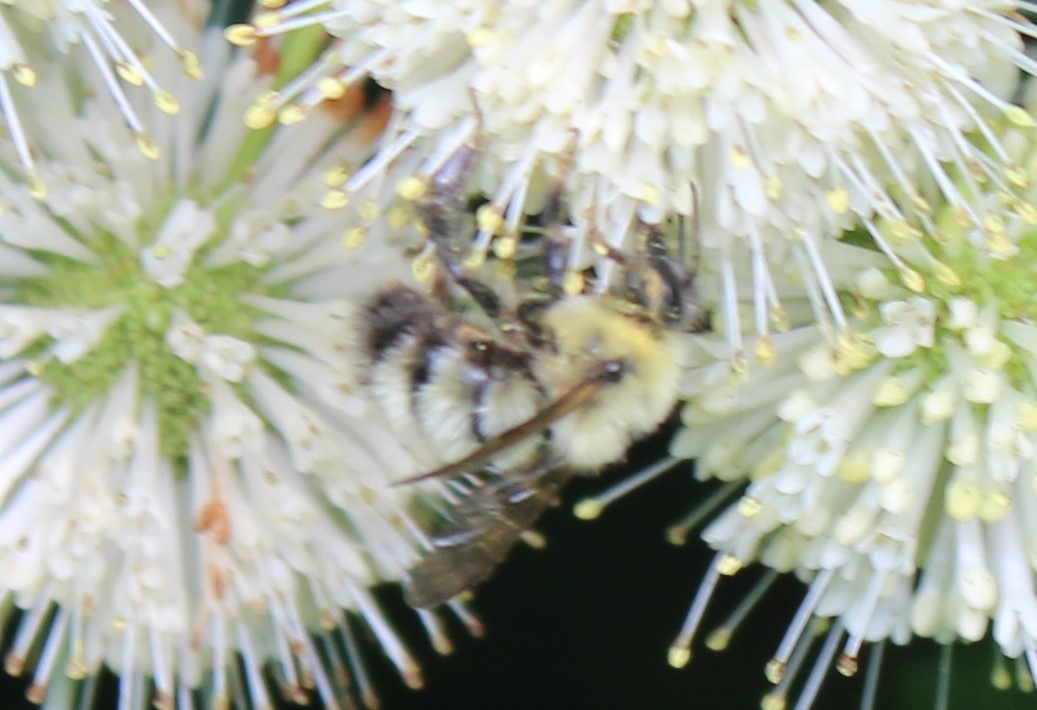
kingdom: Animalia
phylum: Arthropoda
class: Insecta
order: Hymenoptera
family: Apidae
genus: Bombus
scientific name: Bombus perplexus
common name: Confusing bumble bee
